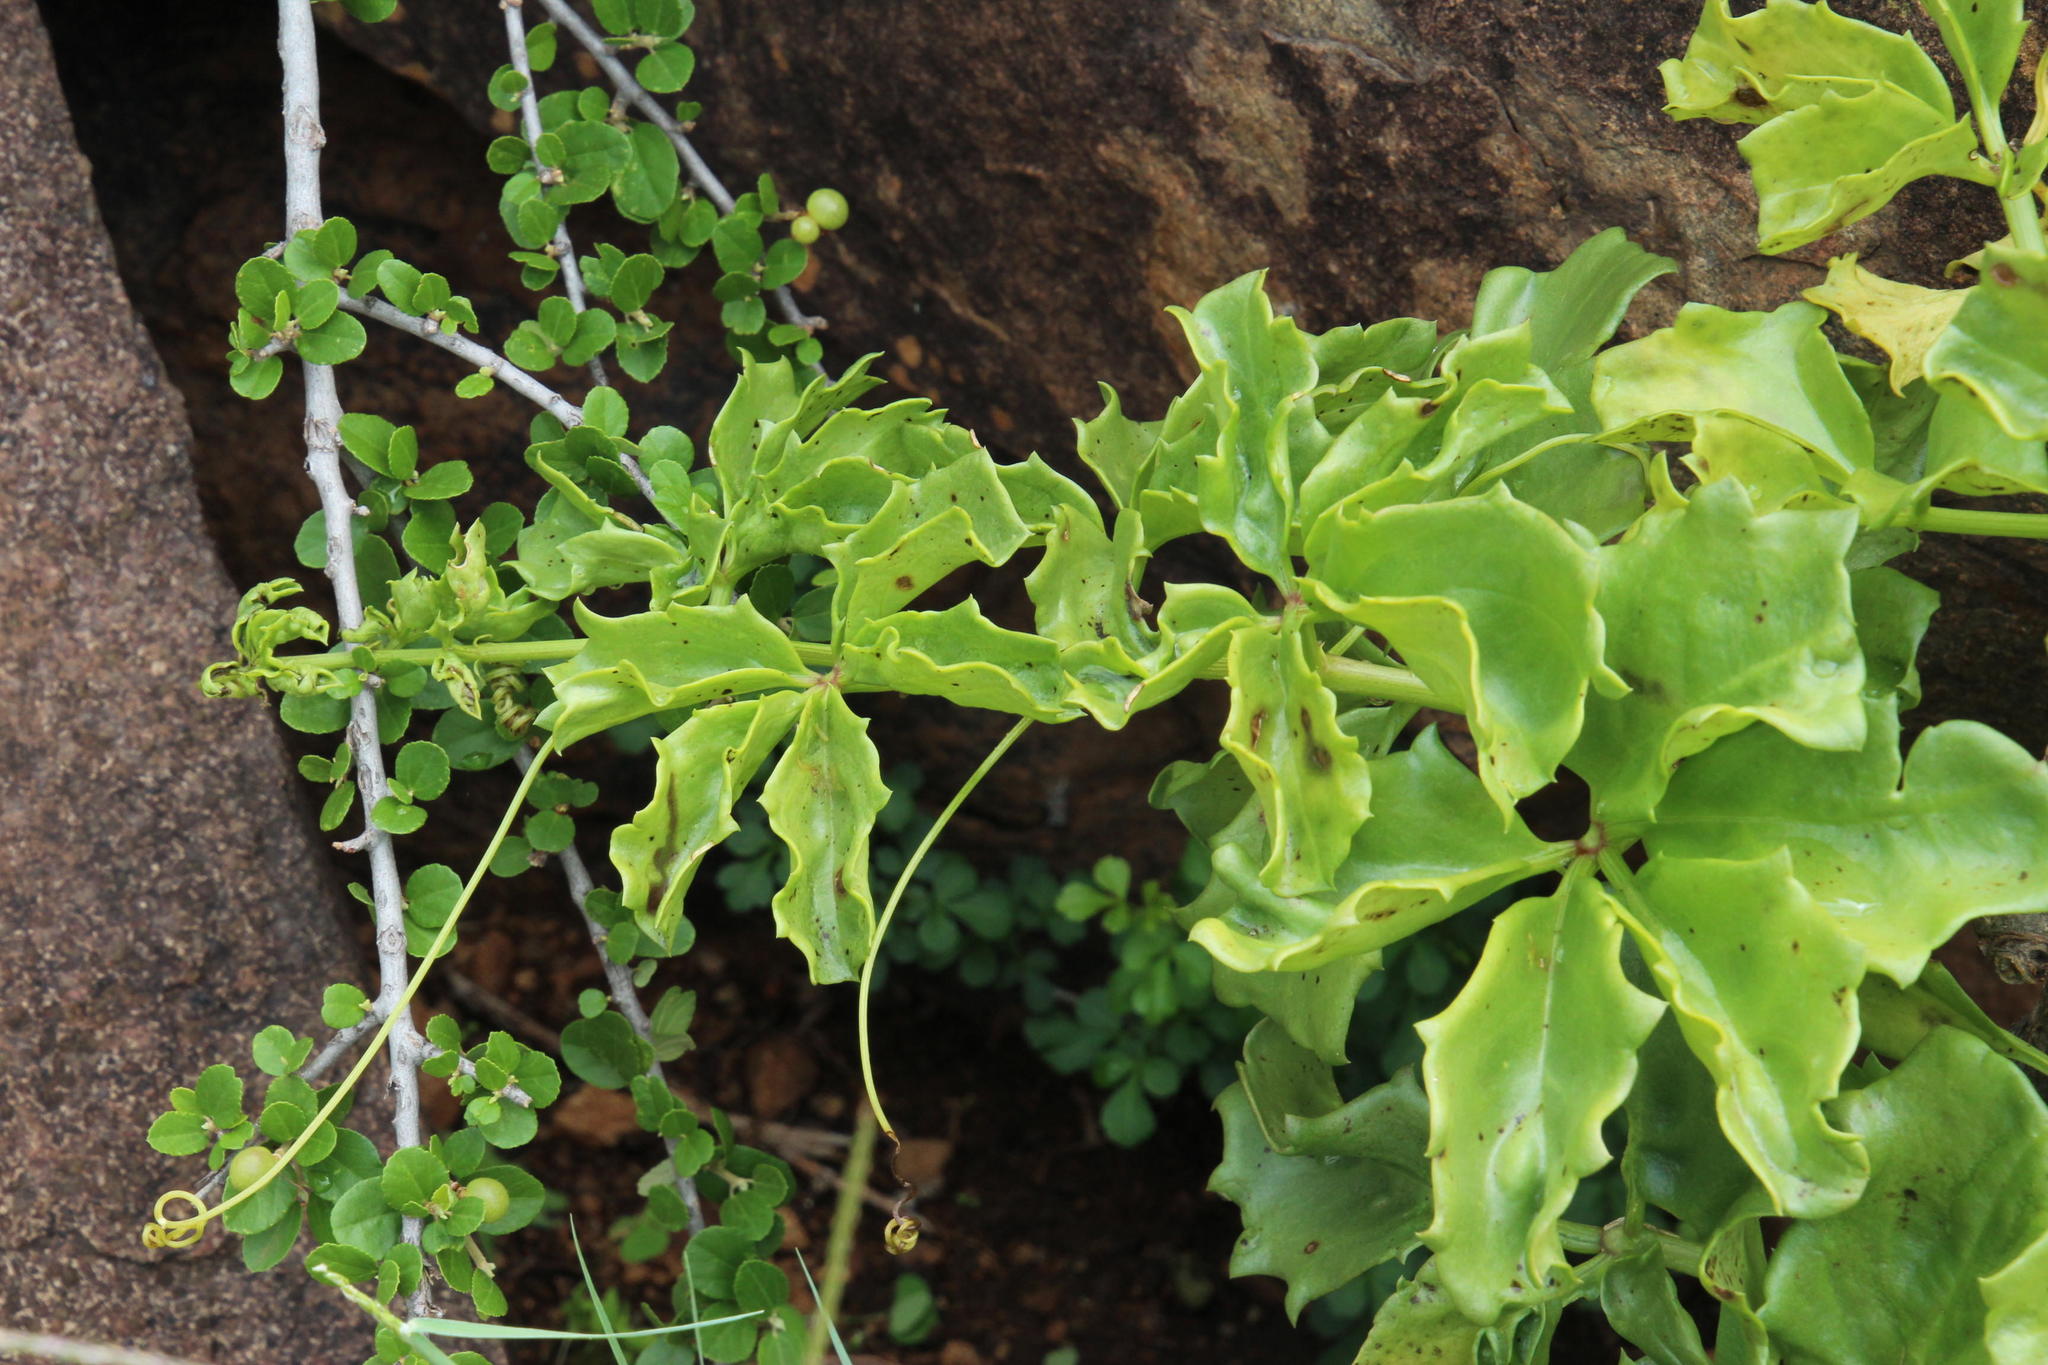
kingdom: Plantae
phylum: Tracheophyta
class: Magnoliopsida
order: Vitales
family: Vitaceae
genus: Cyphostemma
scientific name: Cyphostemma quinatum
